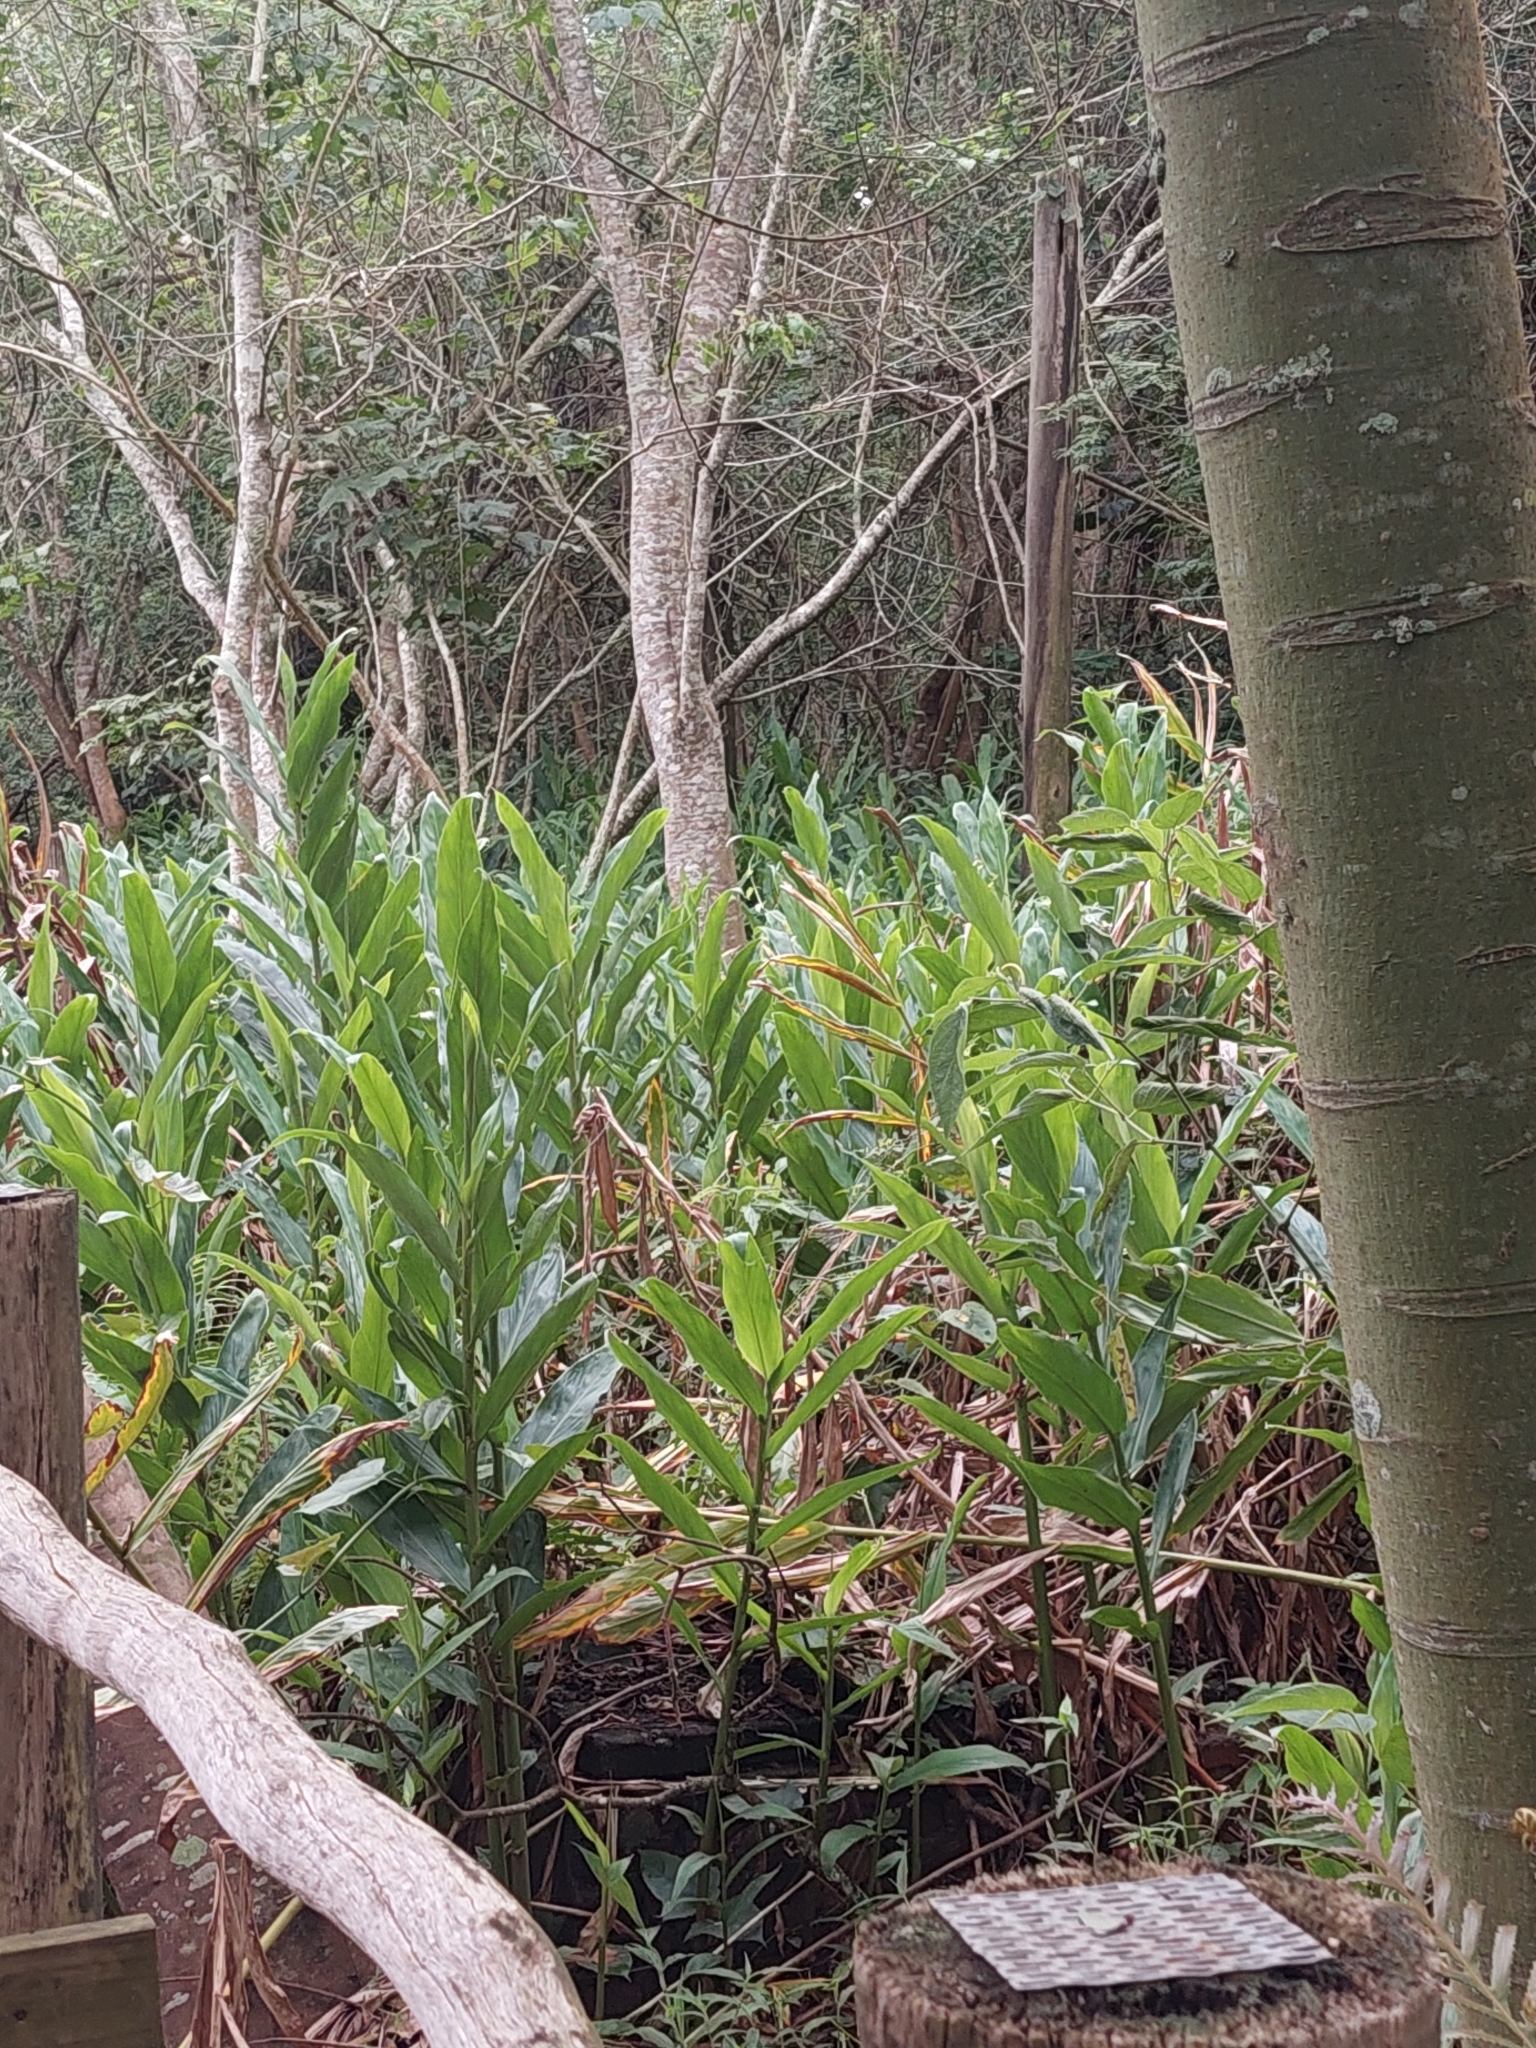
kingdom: Plantae
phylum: Tracheophyta
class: Liliopsida
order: Zingiberales
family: Zingiberaceae
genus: Hedychium
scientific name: Hedychium coronarium
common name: White garland-lily
